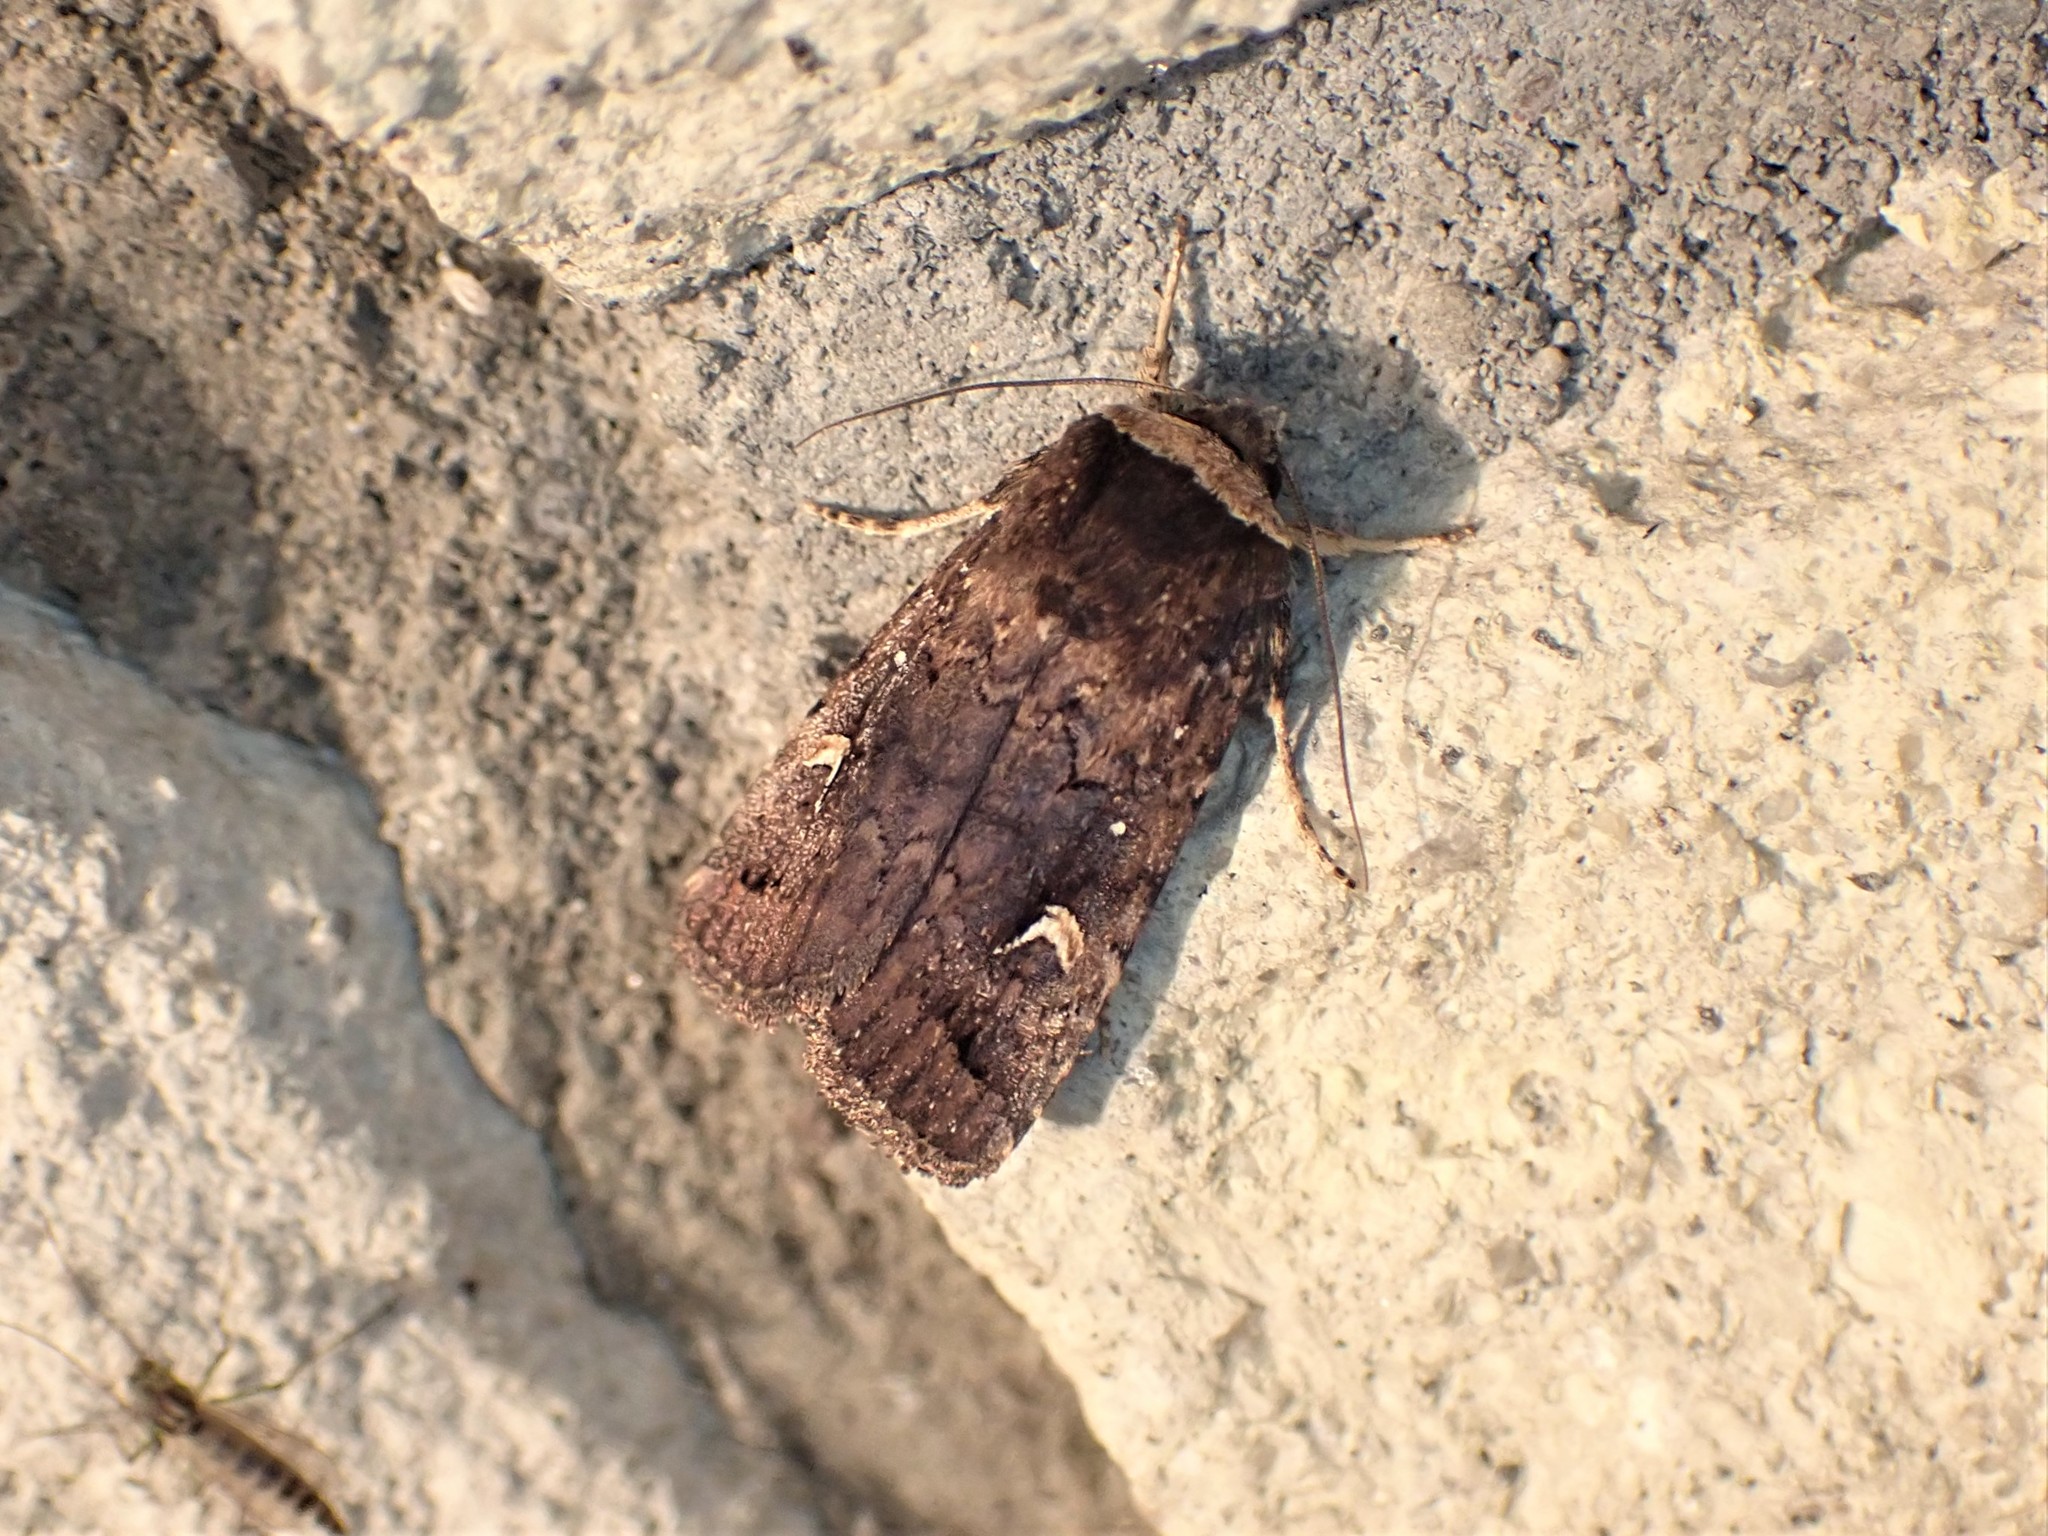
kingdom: Animalia
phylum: Arthropoda
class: Insecta
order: Lepidoptera
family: Noctuidae
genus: Proteuxoa
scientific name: Proteuxoa tetronycha
